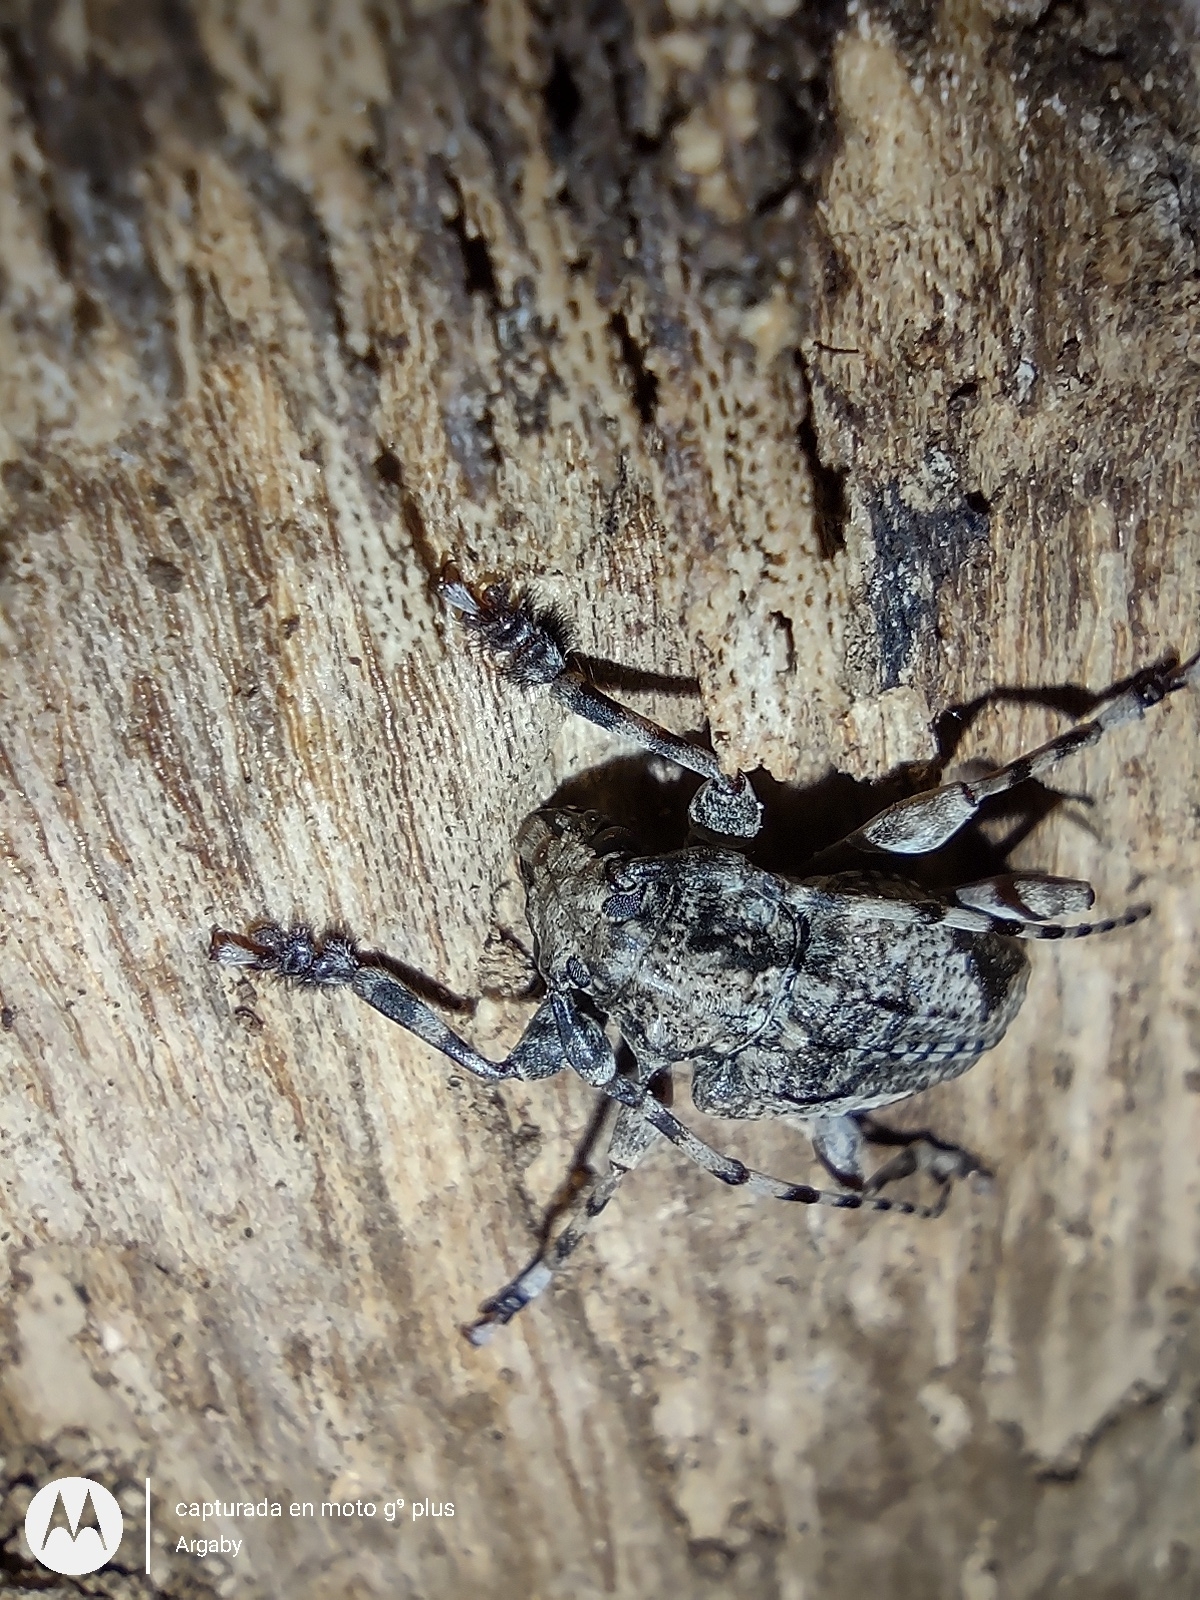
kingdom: Animalia
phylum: Arthropoda
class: Insecta
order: Coleoptera
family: Cerambycidae
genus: Psapharochrus
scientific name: Psapharochrus jaspideus
